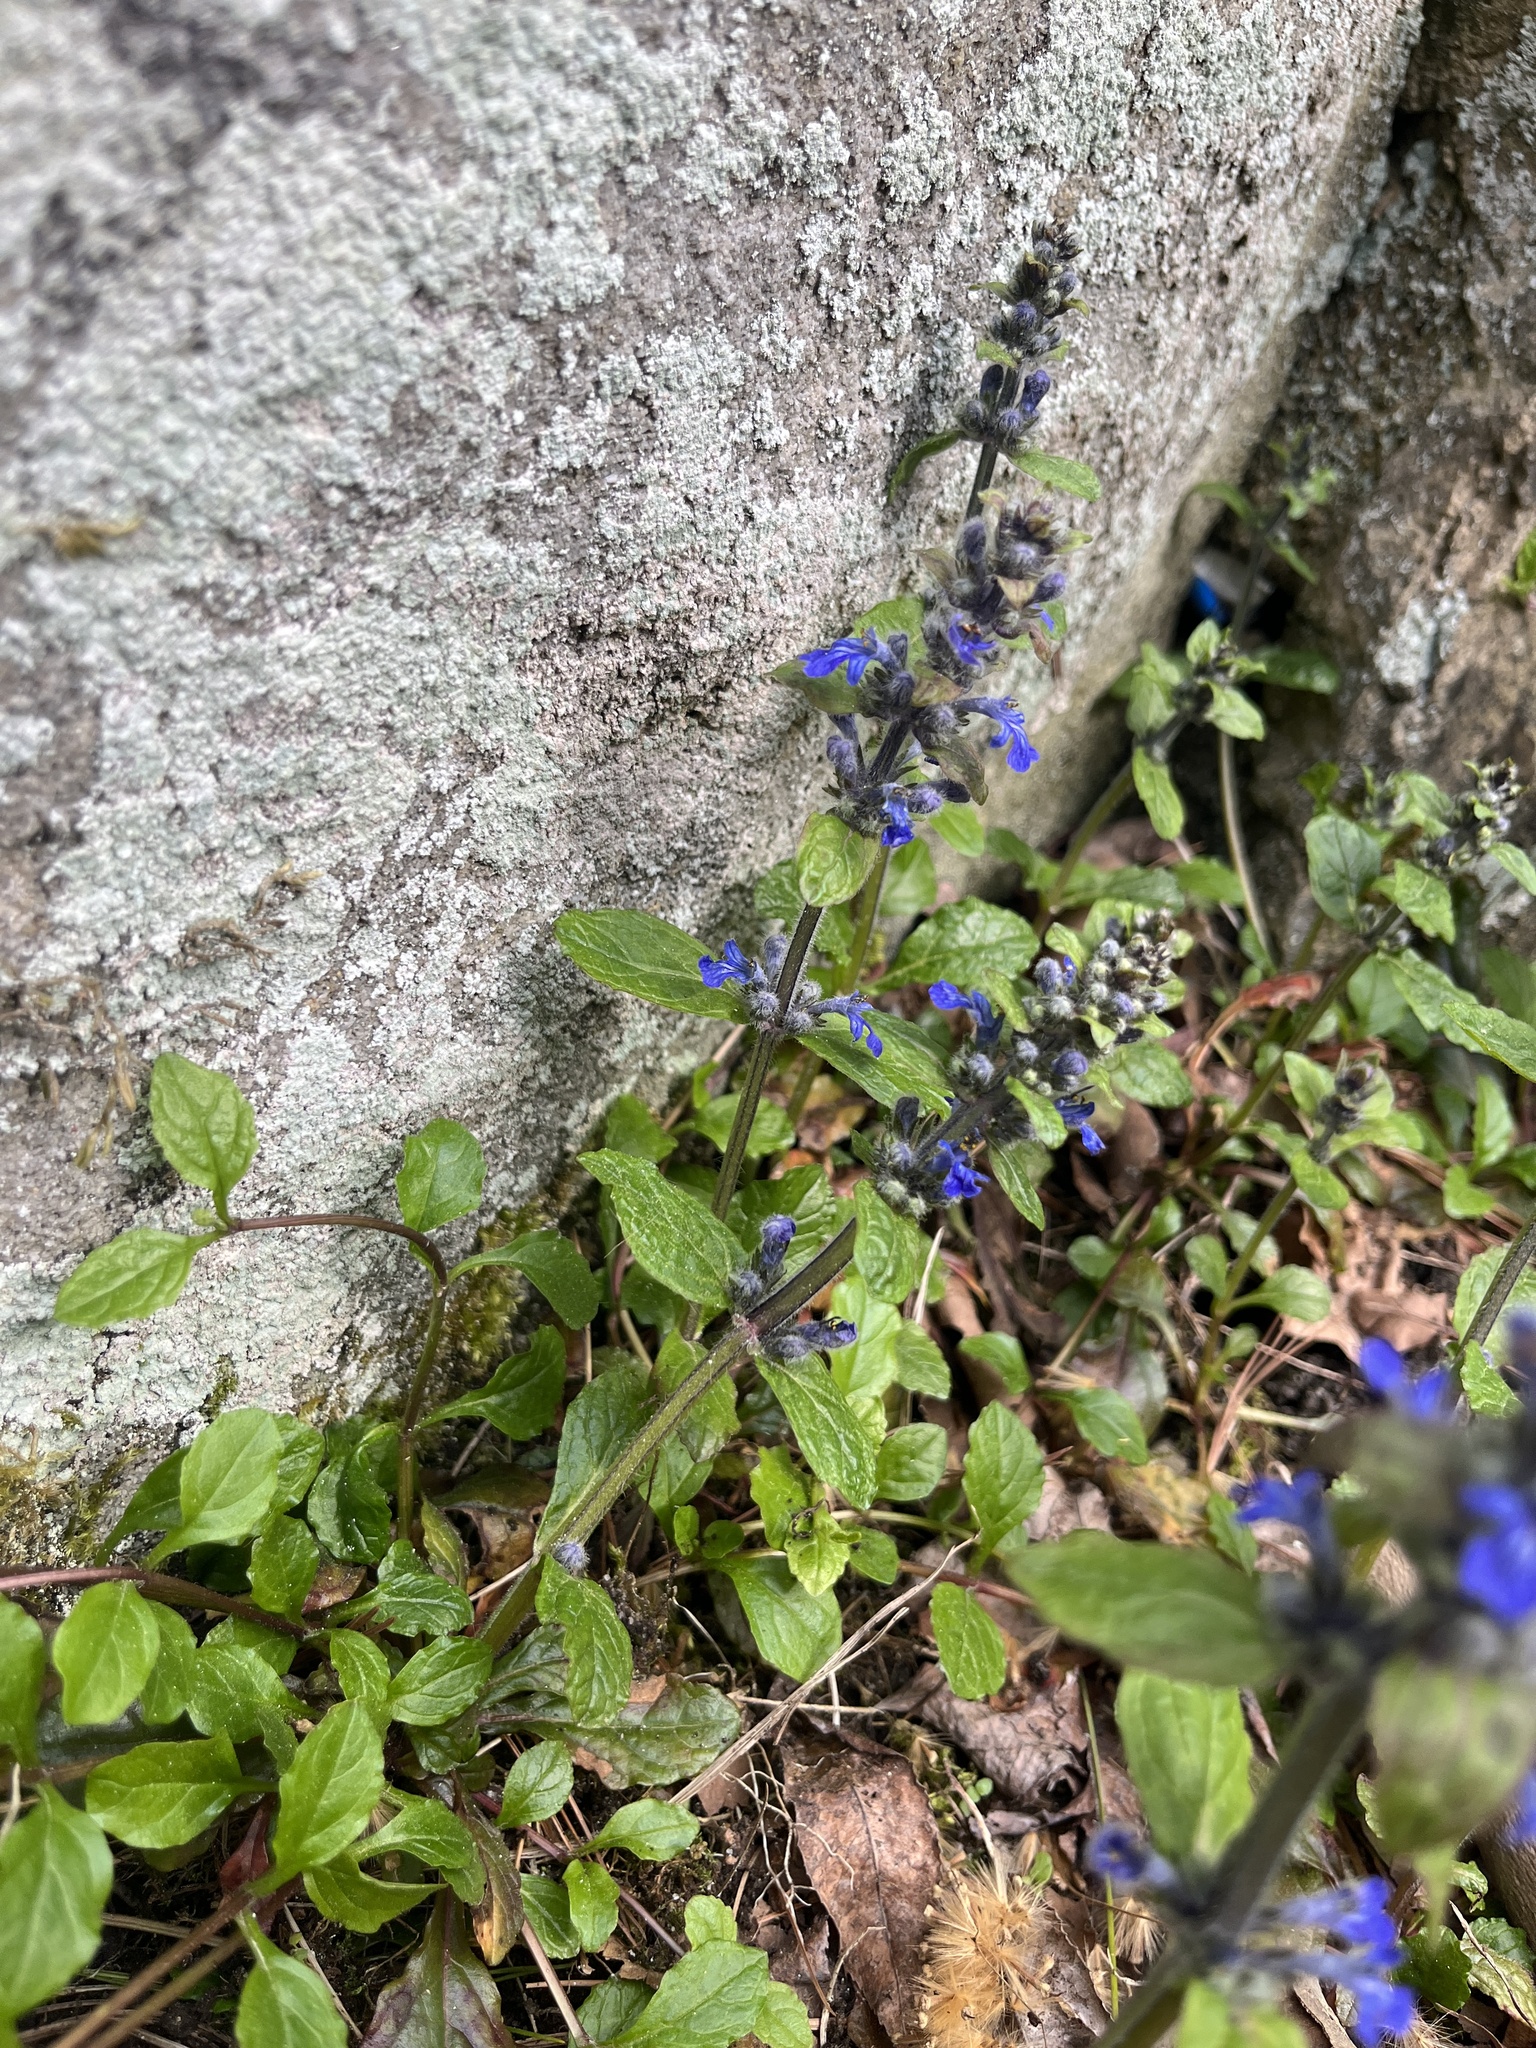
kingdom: Plantae
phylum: Tracheophyta
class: Magnoliopsida
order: Lamiales
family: Lamiaceae
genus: Ajuga
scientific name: Ajuga reptans
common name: Bugle
